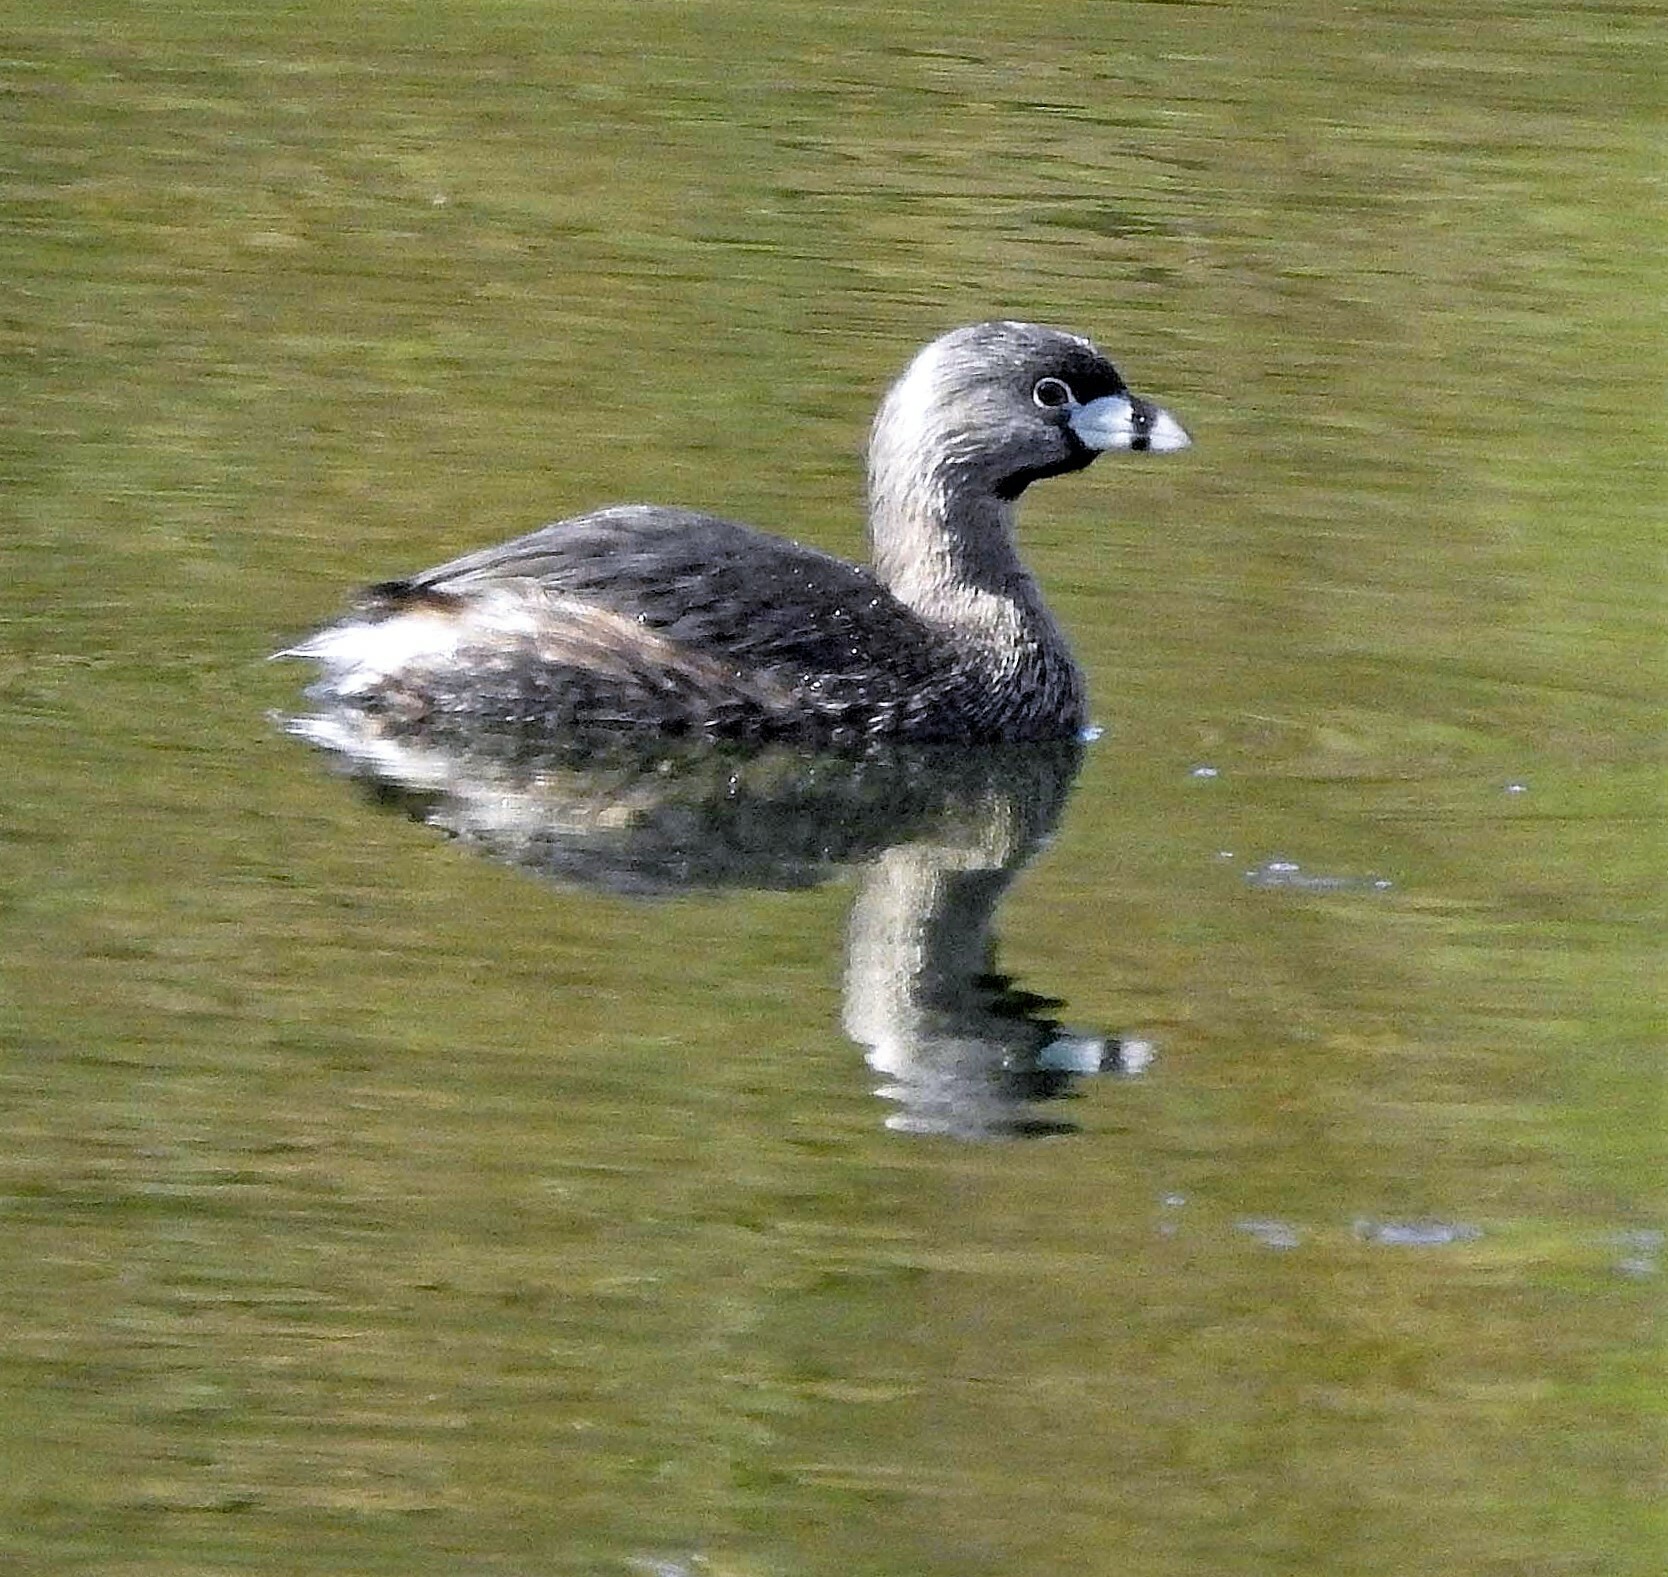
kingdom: Animalia
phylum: Chordata
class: Aves
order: Podicipediformes
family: Podicipedidae
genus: Podilymbus
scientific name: Podilymbus podiceps
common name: Pied-billed grebe
